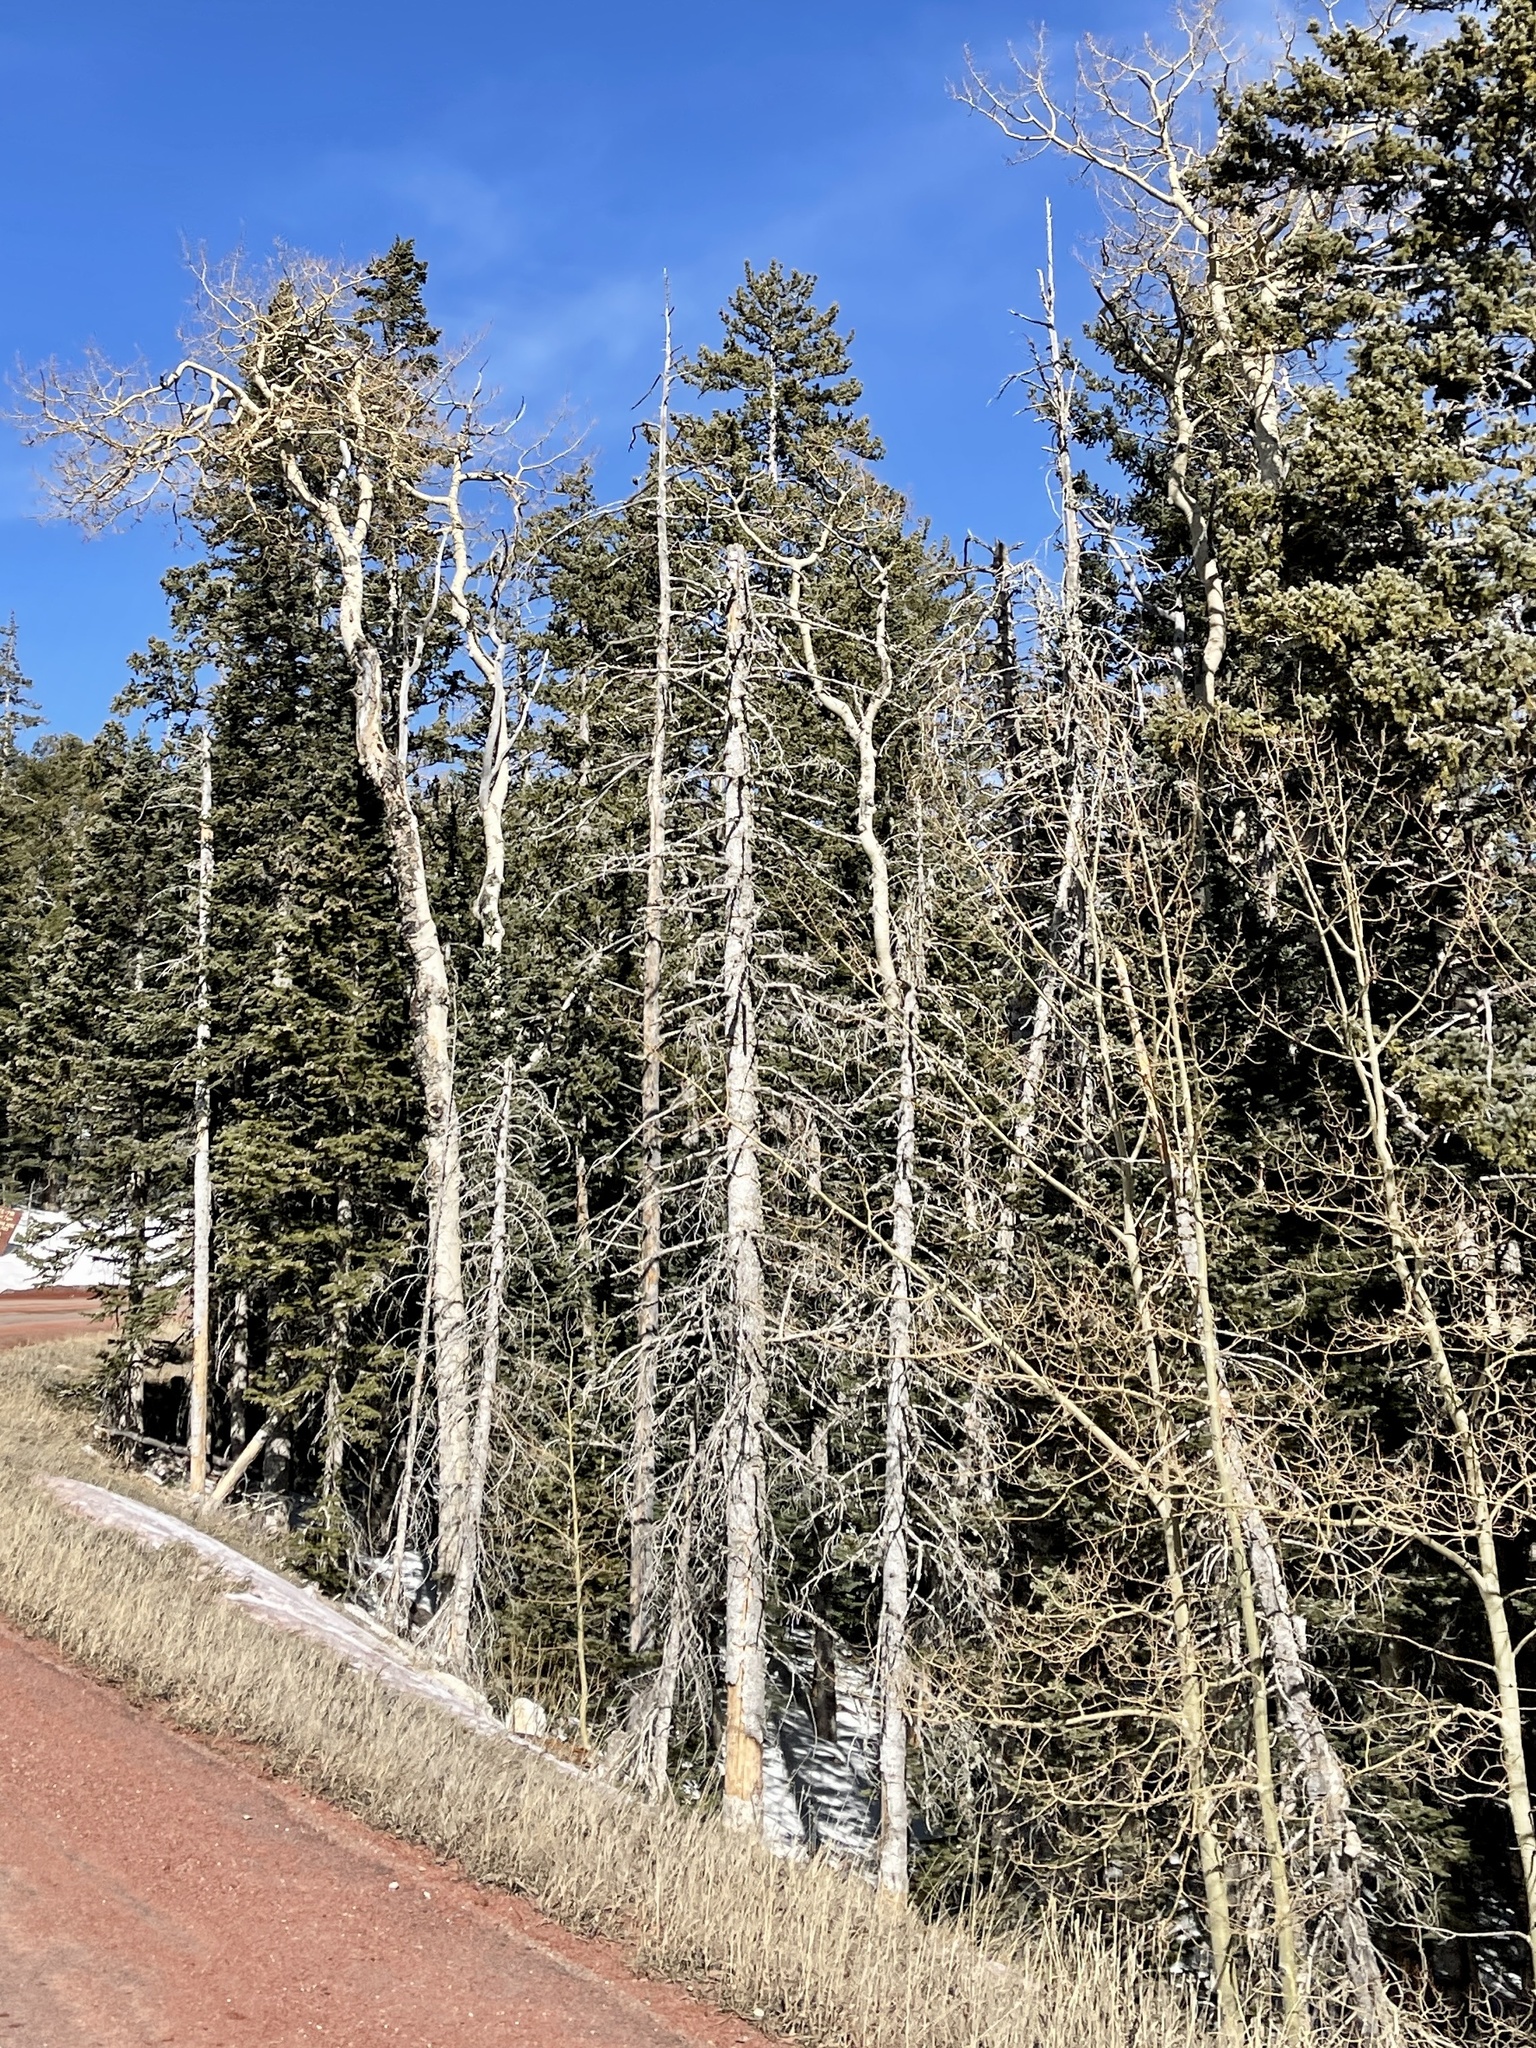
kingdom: Plantae
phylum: Tracheophyta
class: Magnoliopsida
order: Malpighiales
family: Salicaceae
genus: Populus
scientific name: Populus tremuloides
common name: Quaking aspen
